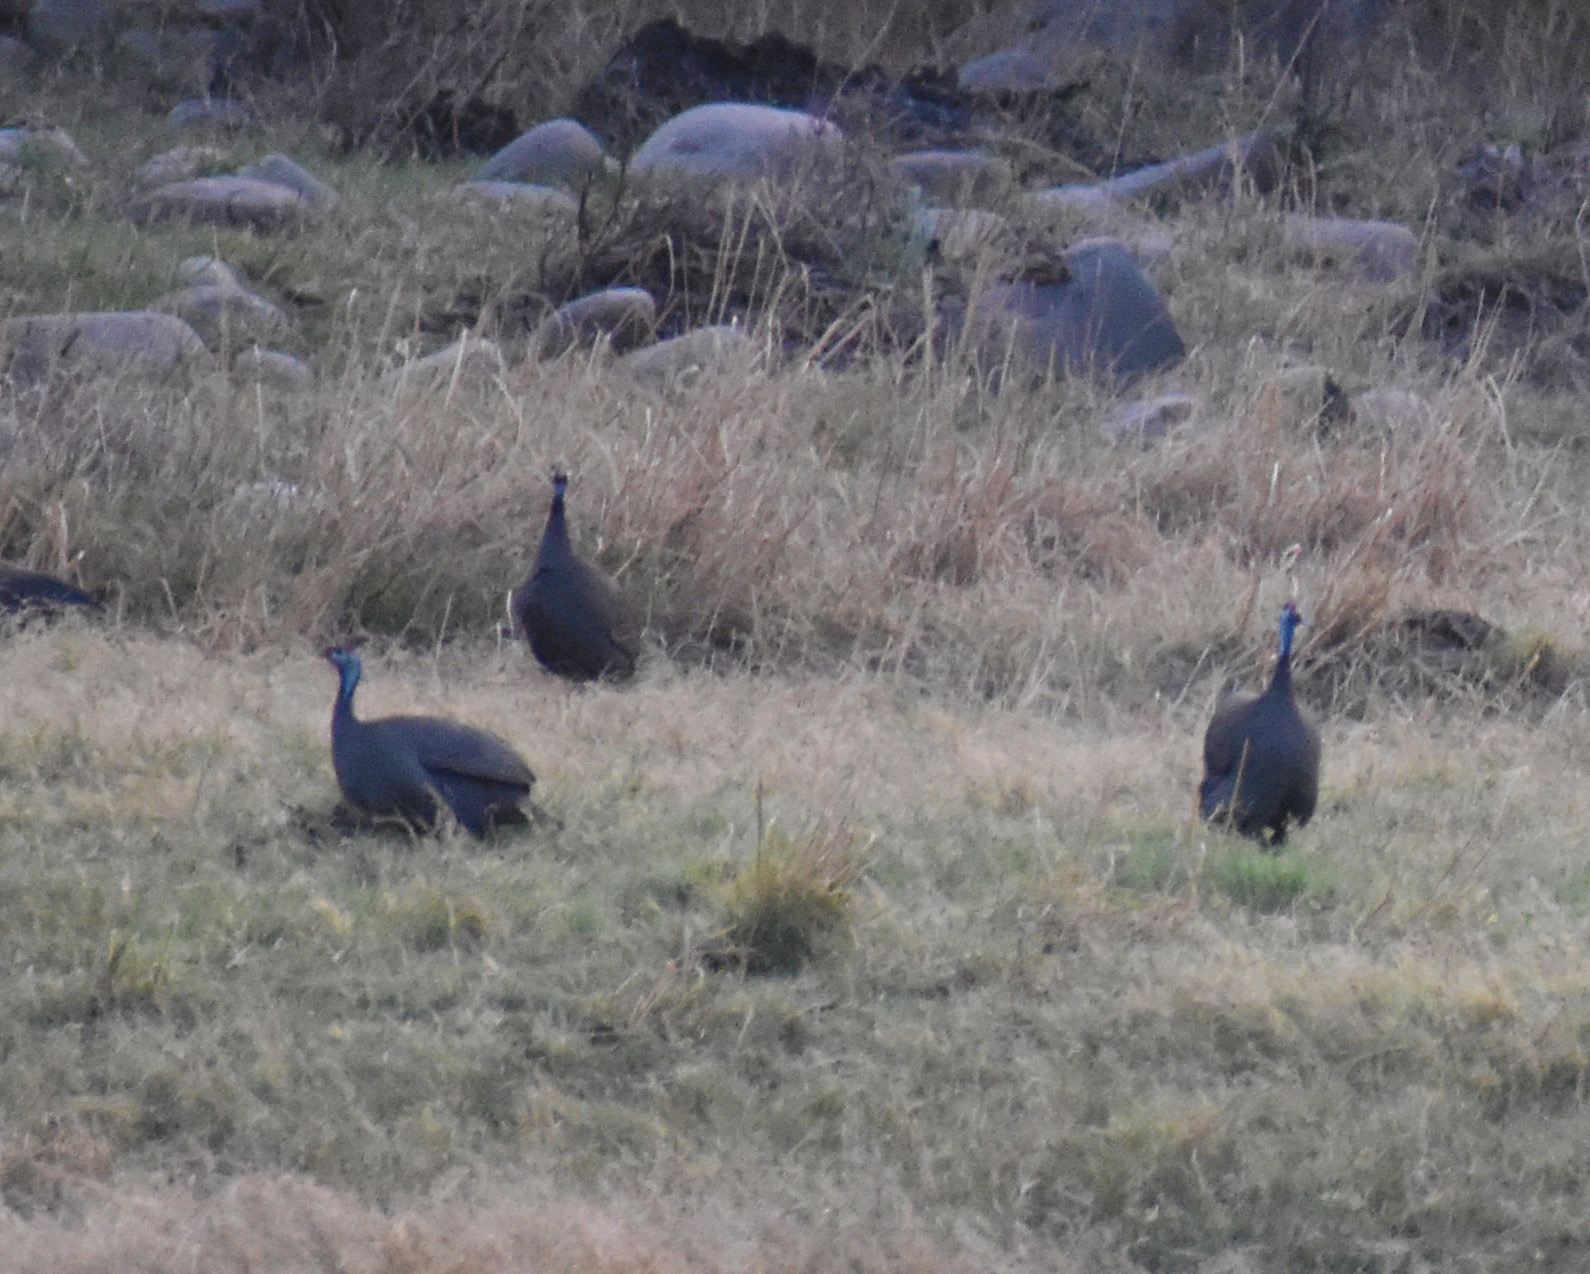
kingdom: Animalia
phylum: Chordata
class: Aves
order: Galliformes
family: Numididae
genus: Numida
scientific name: Numida meleagris
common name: Helmeted guineafowl
